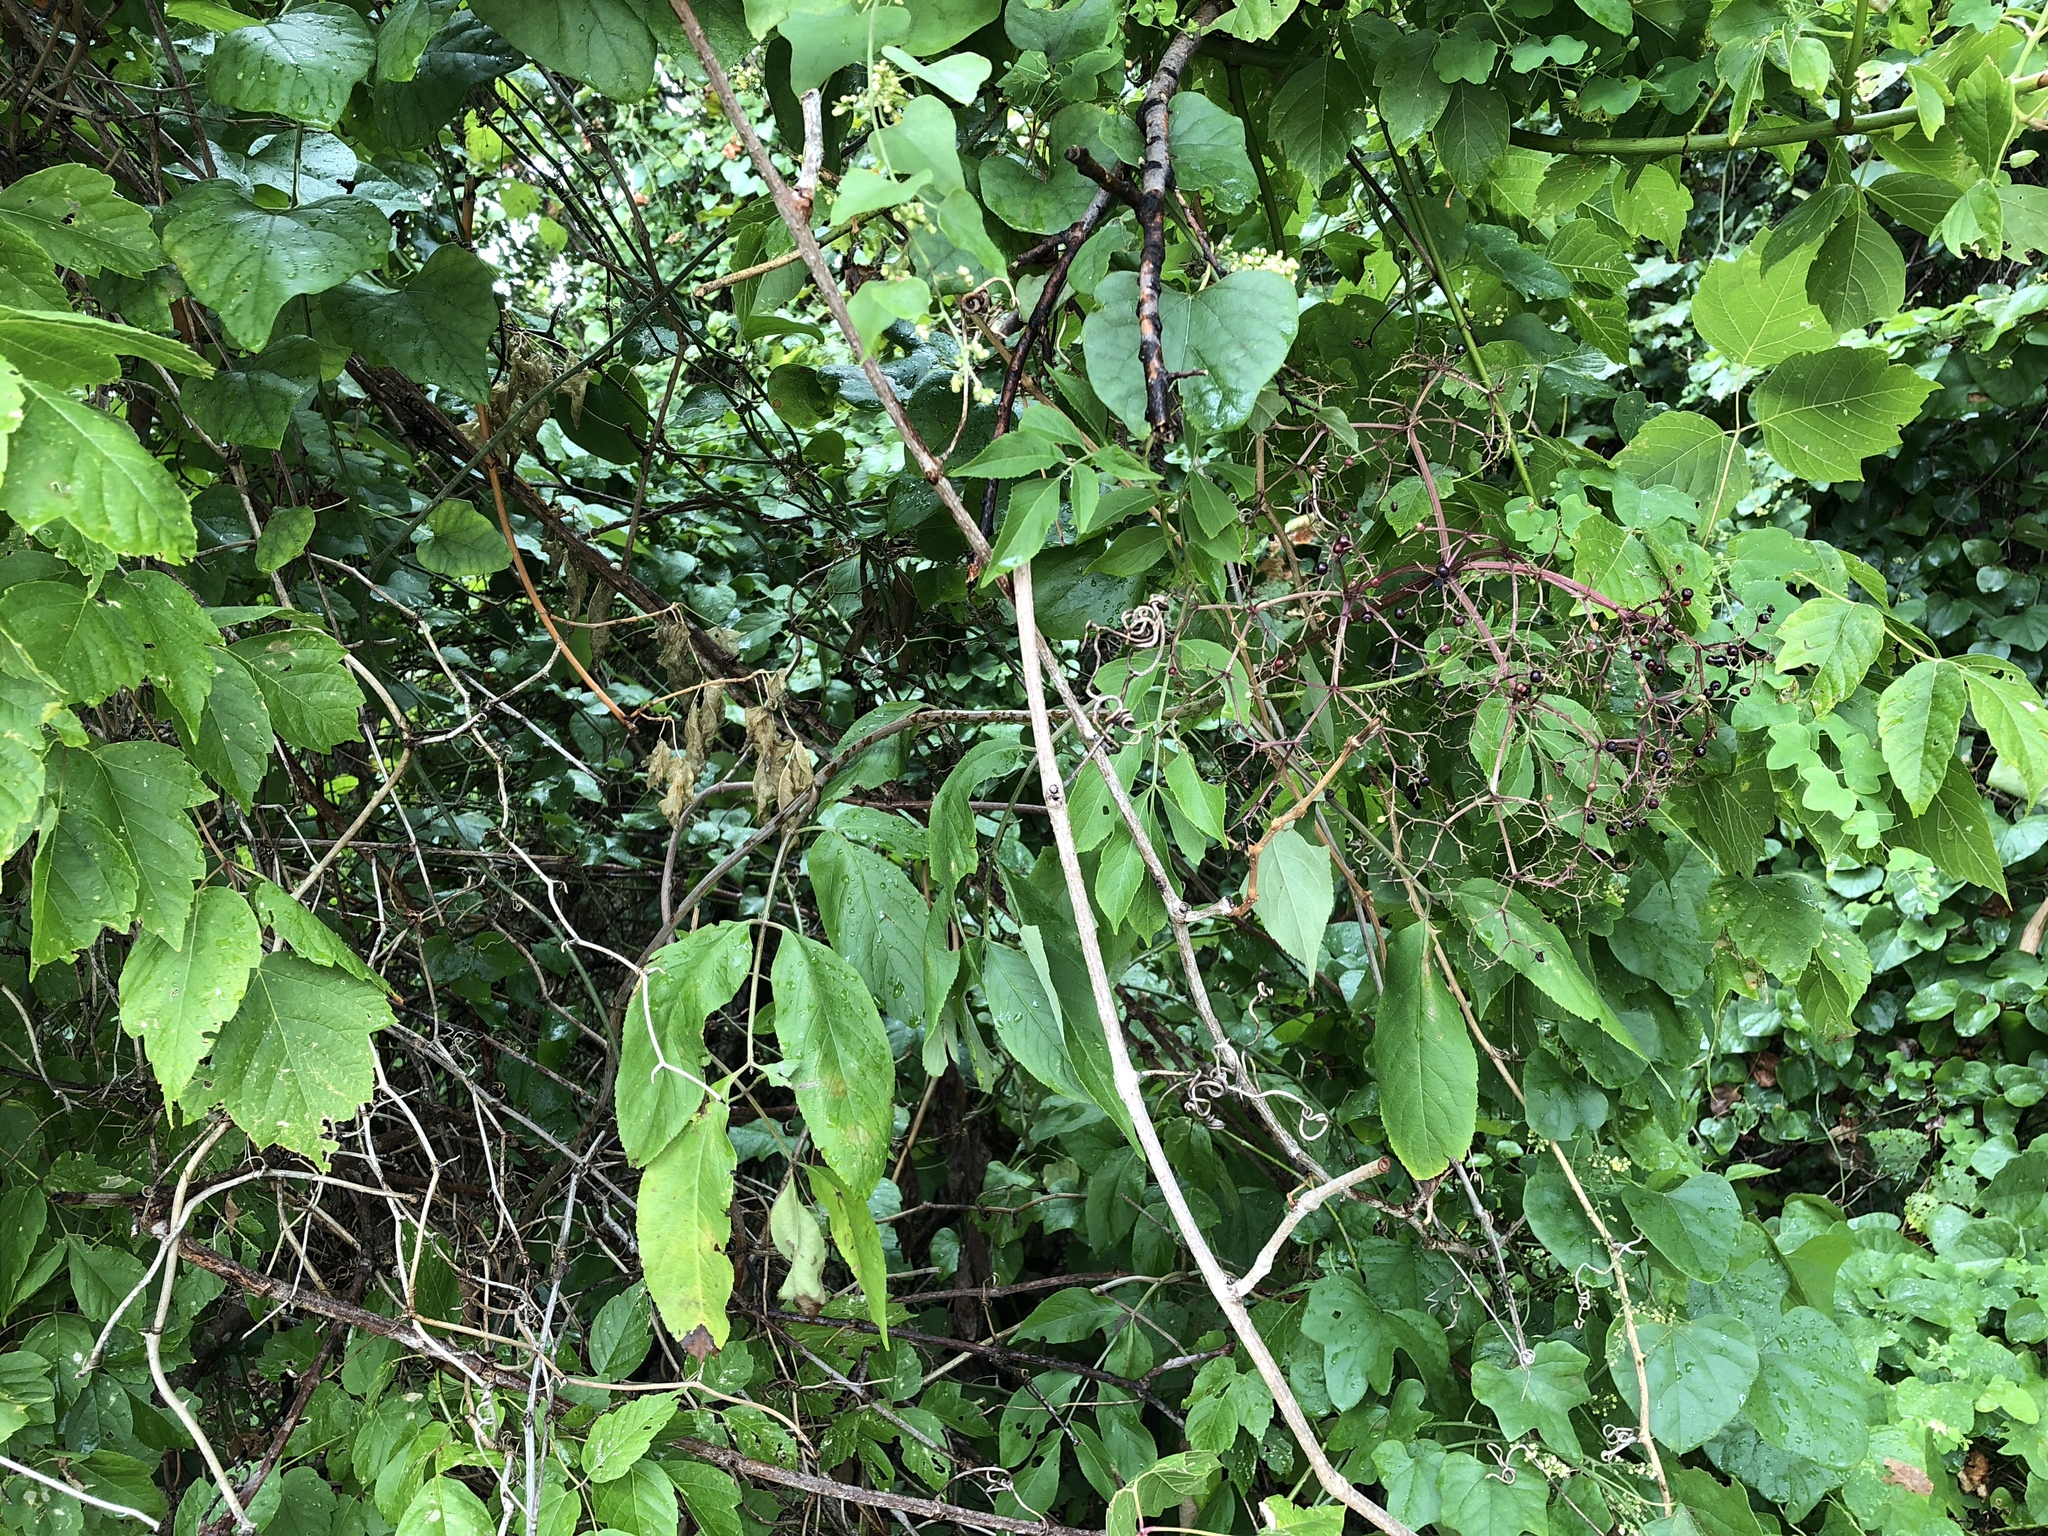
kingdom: Plantae
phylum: Tracheophyta
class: Magnoliopsida
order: Dipsacales
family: Viburnaceae
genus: Sambucus
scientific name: Sambucus canadensis
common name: American elder
